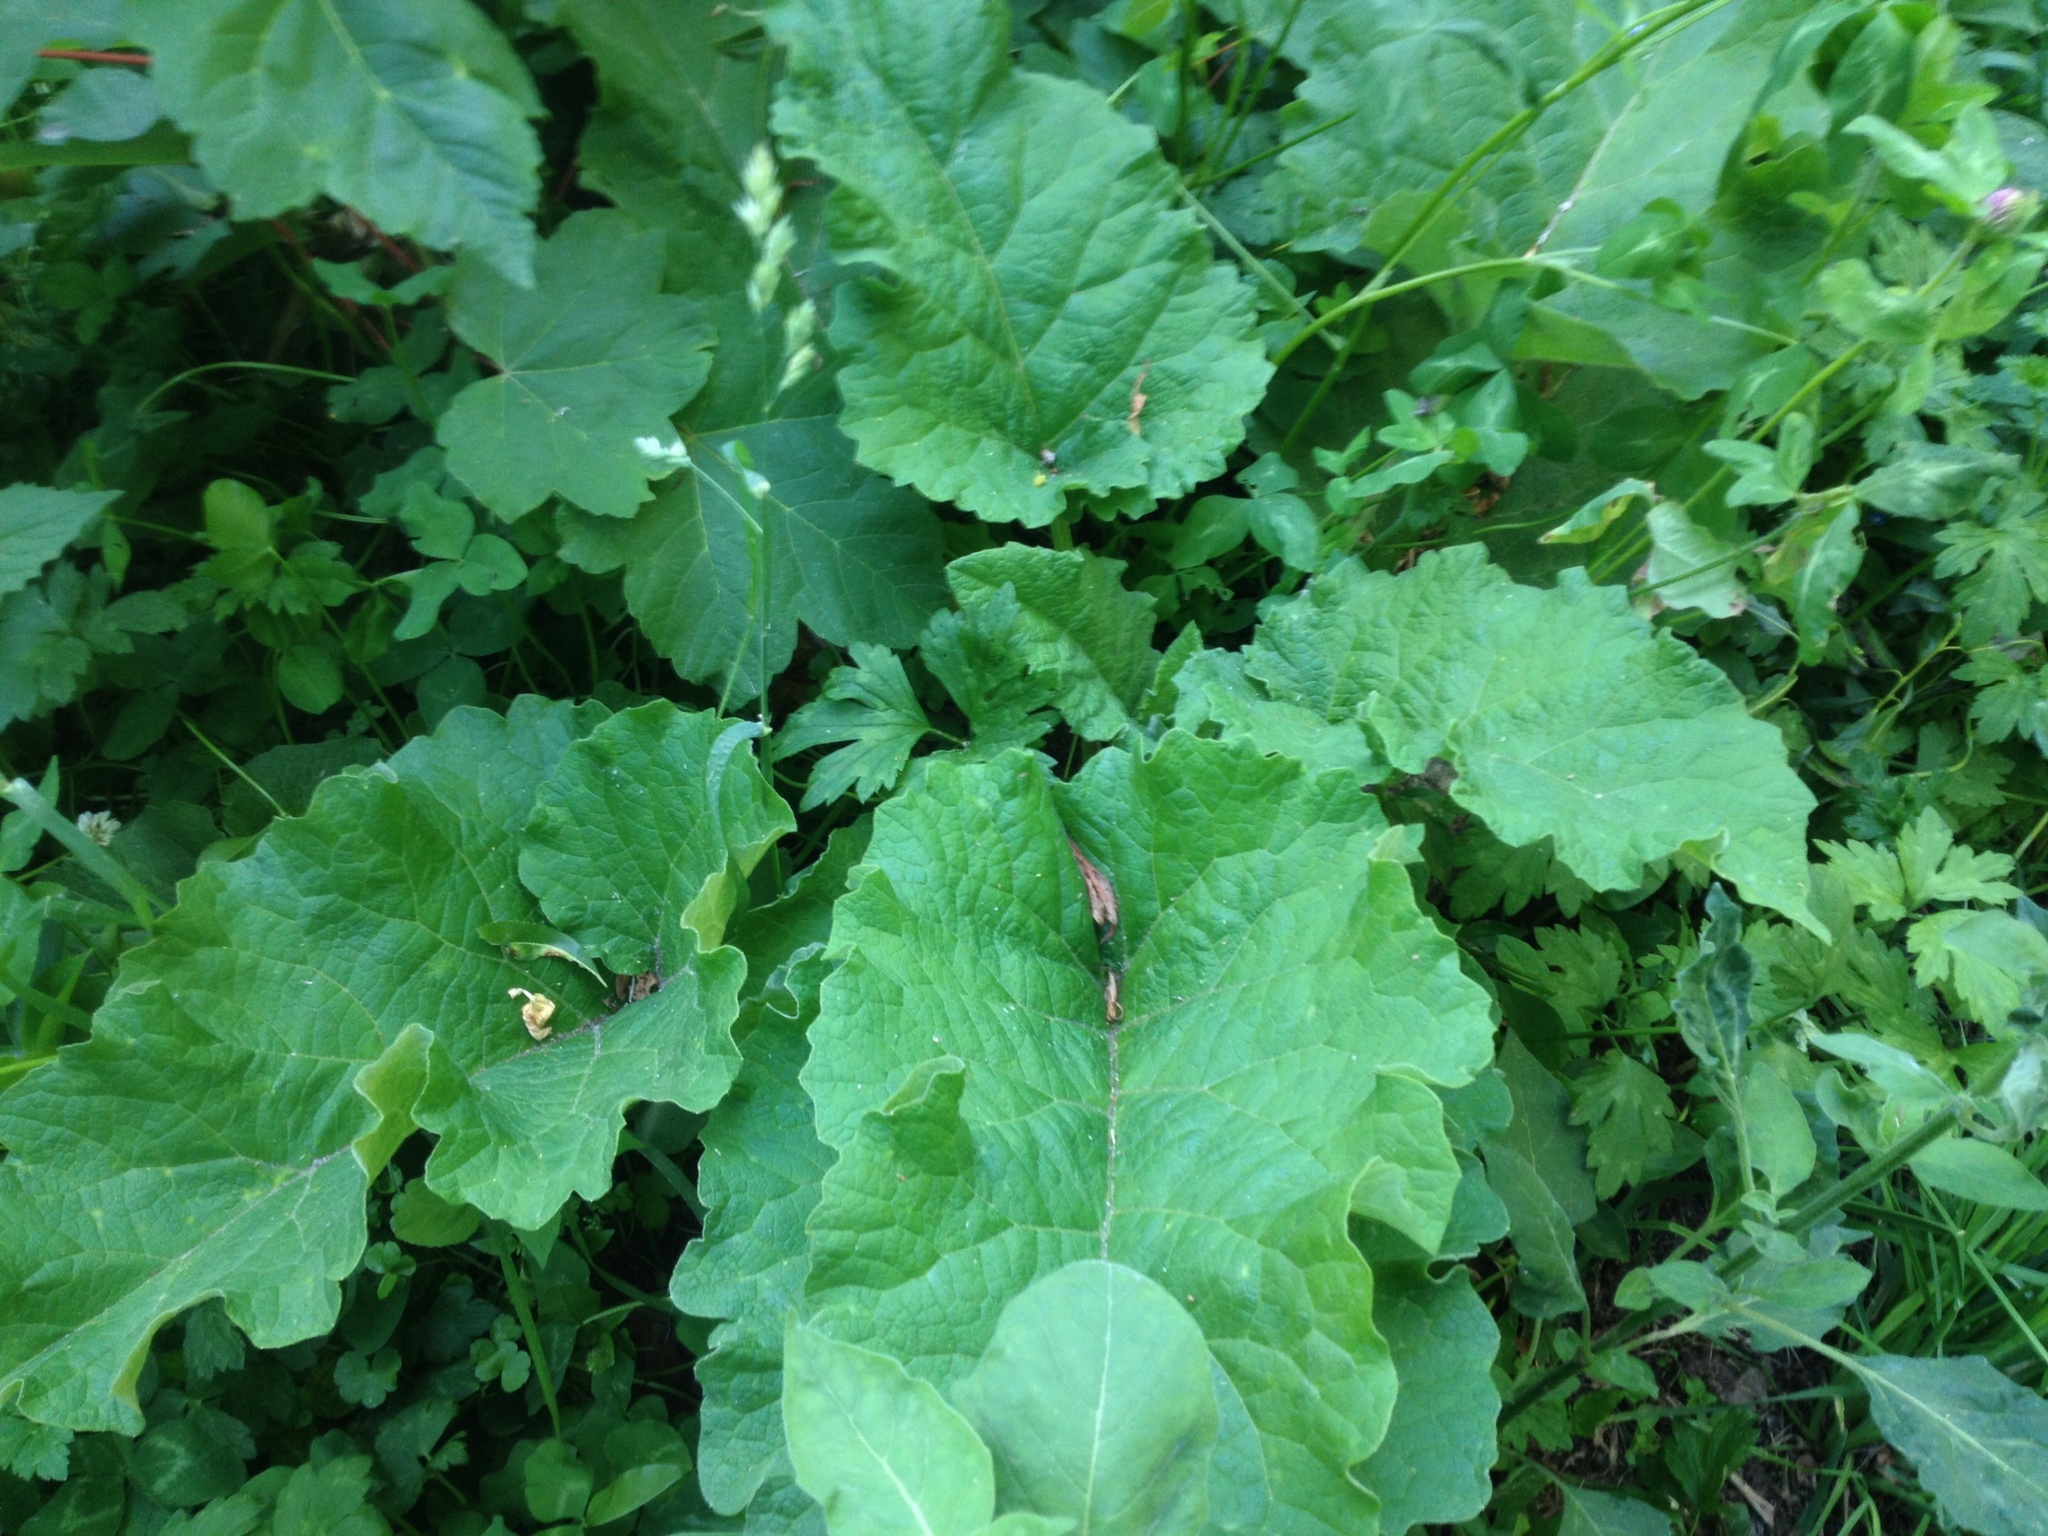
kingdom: Plantae
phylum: Tracheophyta
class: Magnoliopsida
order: Asterales
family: Asteraceae
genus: Arctium
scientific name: Arctium minus
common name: Lesser burdock
